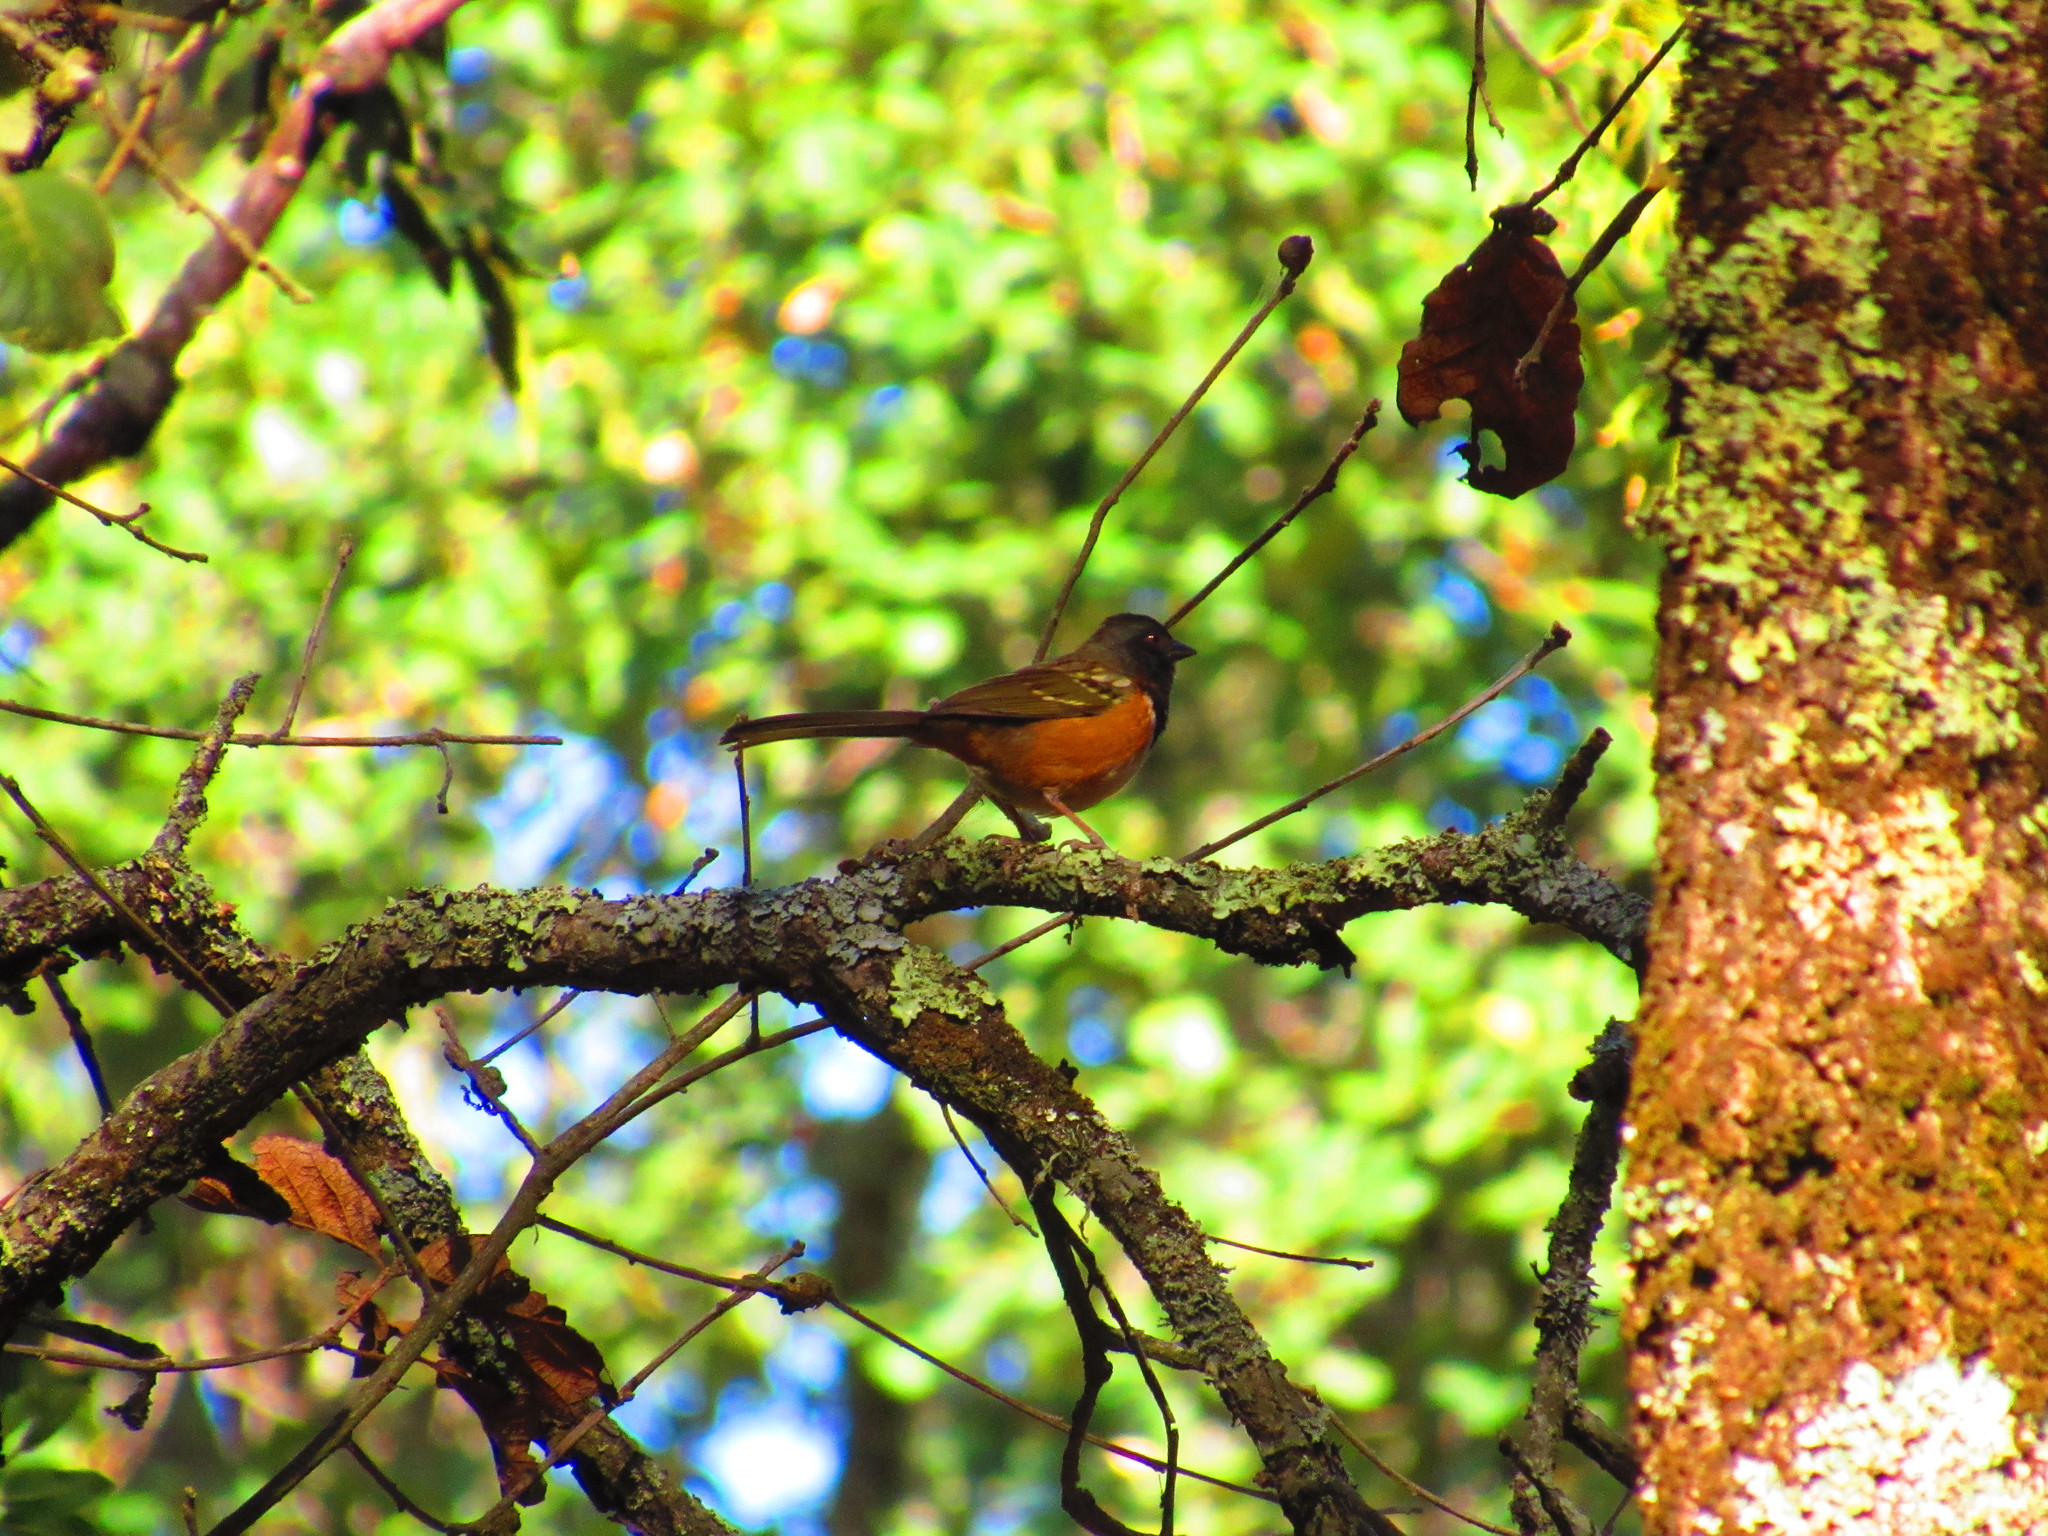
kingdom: Animalia
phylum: Chordata
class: Aves
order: Passeriformes
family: Passerellidae
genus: Pipilo
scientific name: Pipilo maculatus
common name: Spotted towhee
